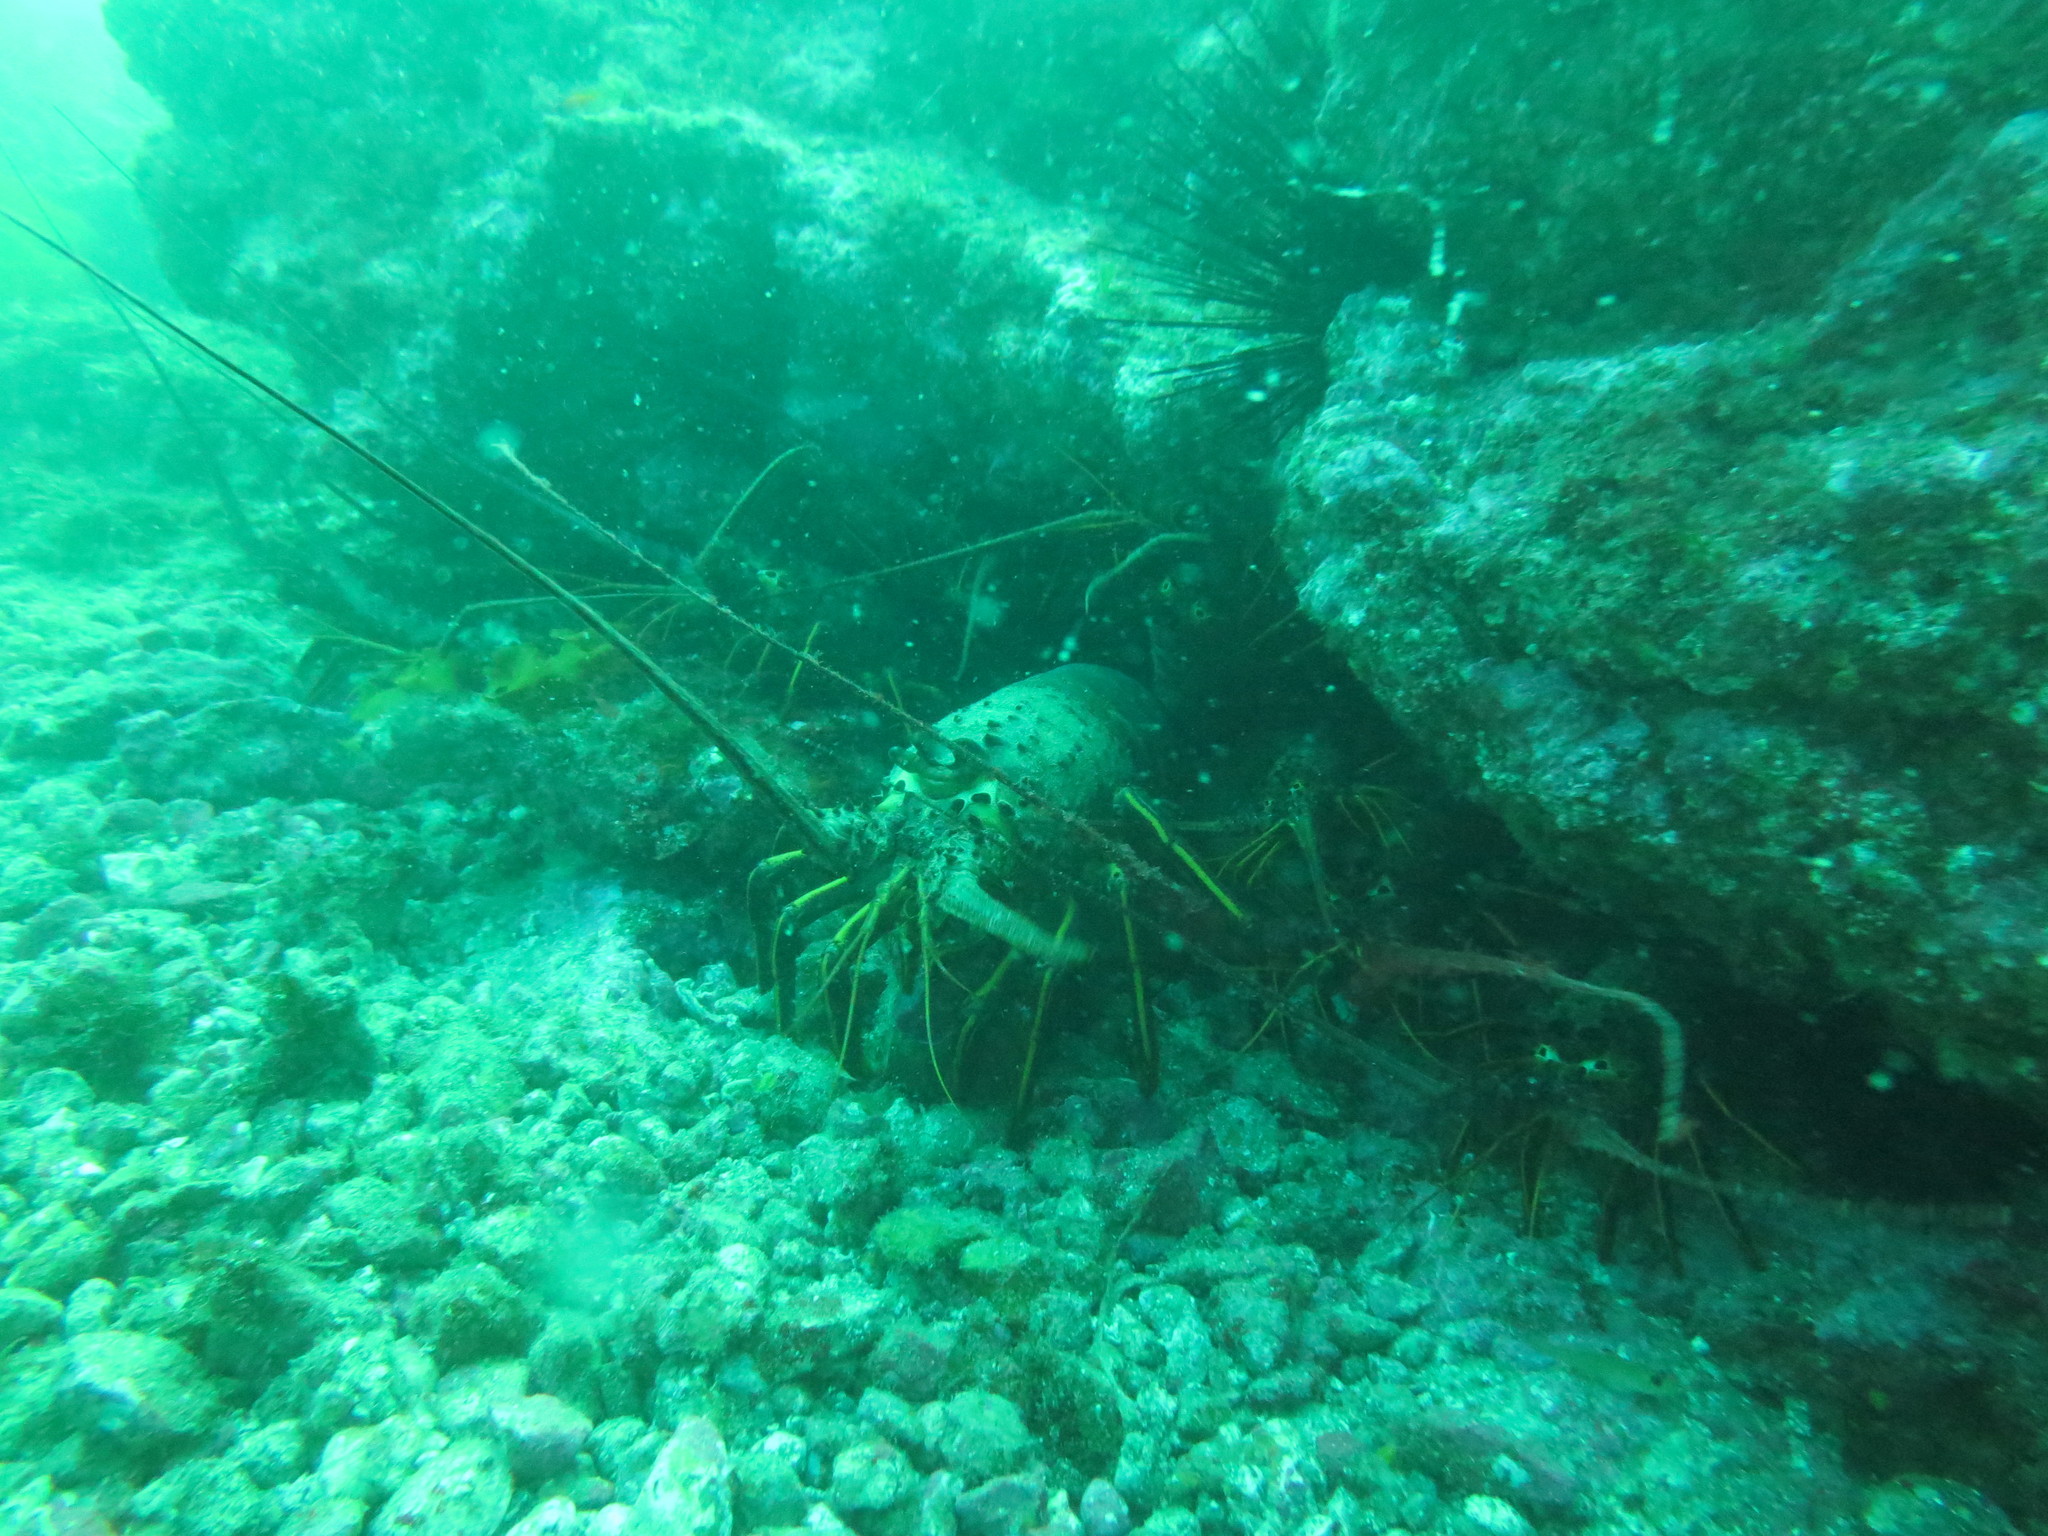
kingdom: Animalia
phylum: Arthropoda
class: Malacostraca
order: Decapoda
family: Palinuridae
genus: Panulirus
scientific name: Panulirus interruptus
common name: California spiny lobster
